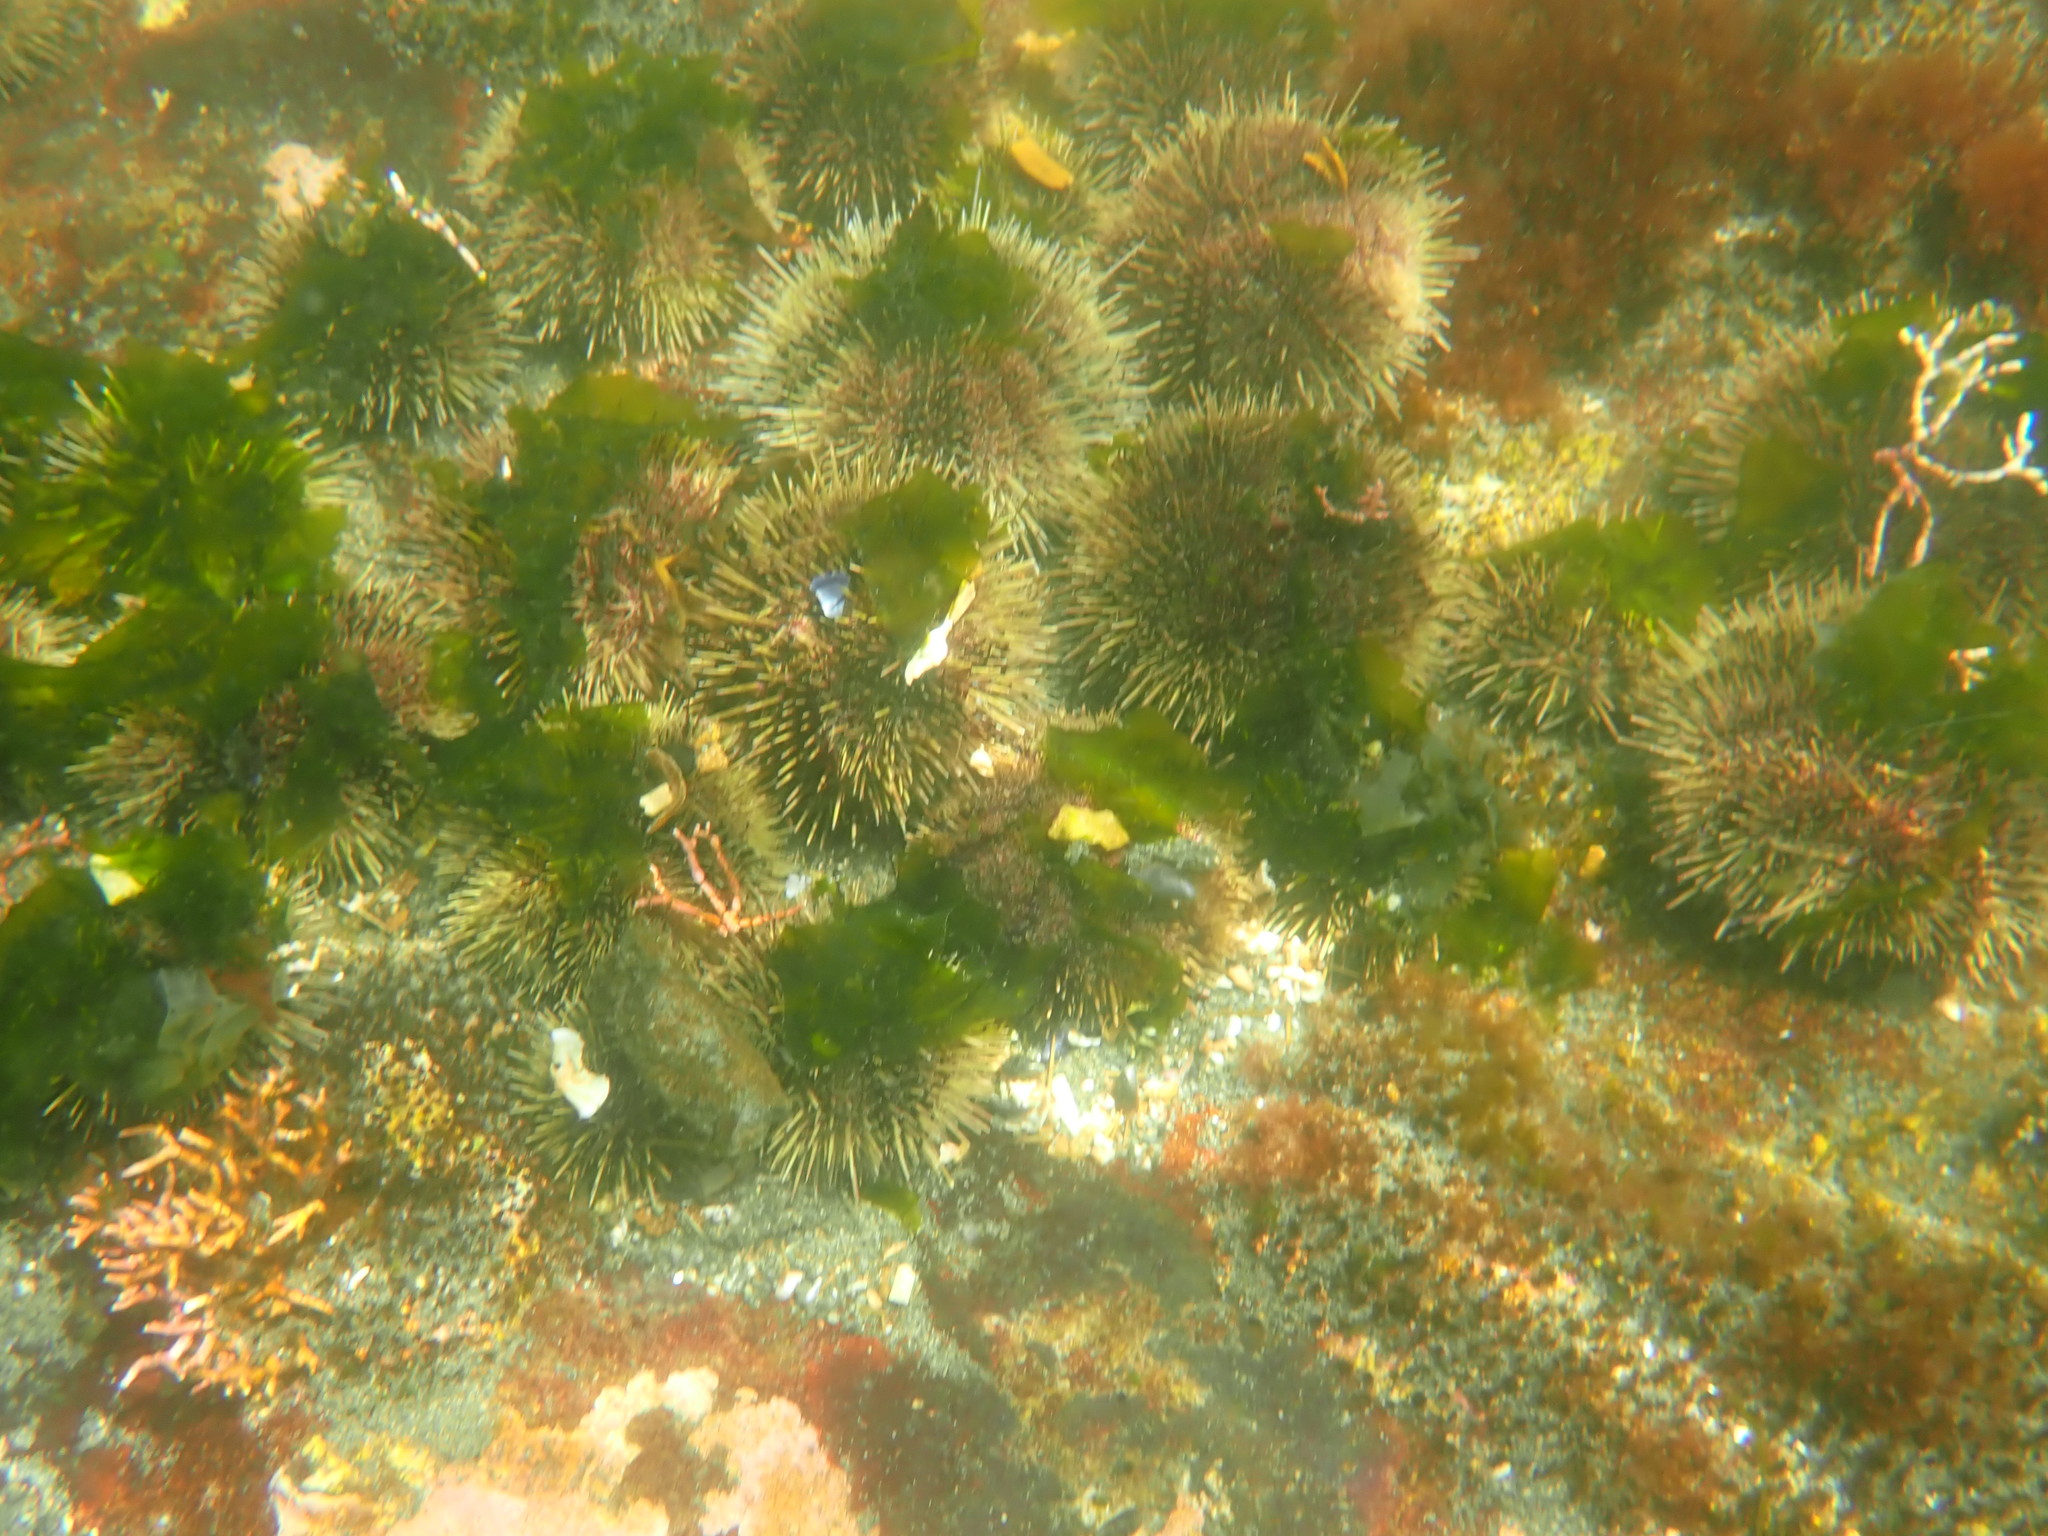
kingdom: Animalia
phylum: Echinodermata
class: Echinoidea
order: Camarodonta
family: Strongylocentrotidae
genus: Strongylocentrotus
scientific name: Strongylocentrotus droebachiensis
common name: Northern sea urchin
